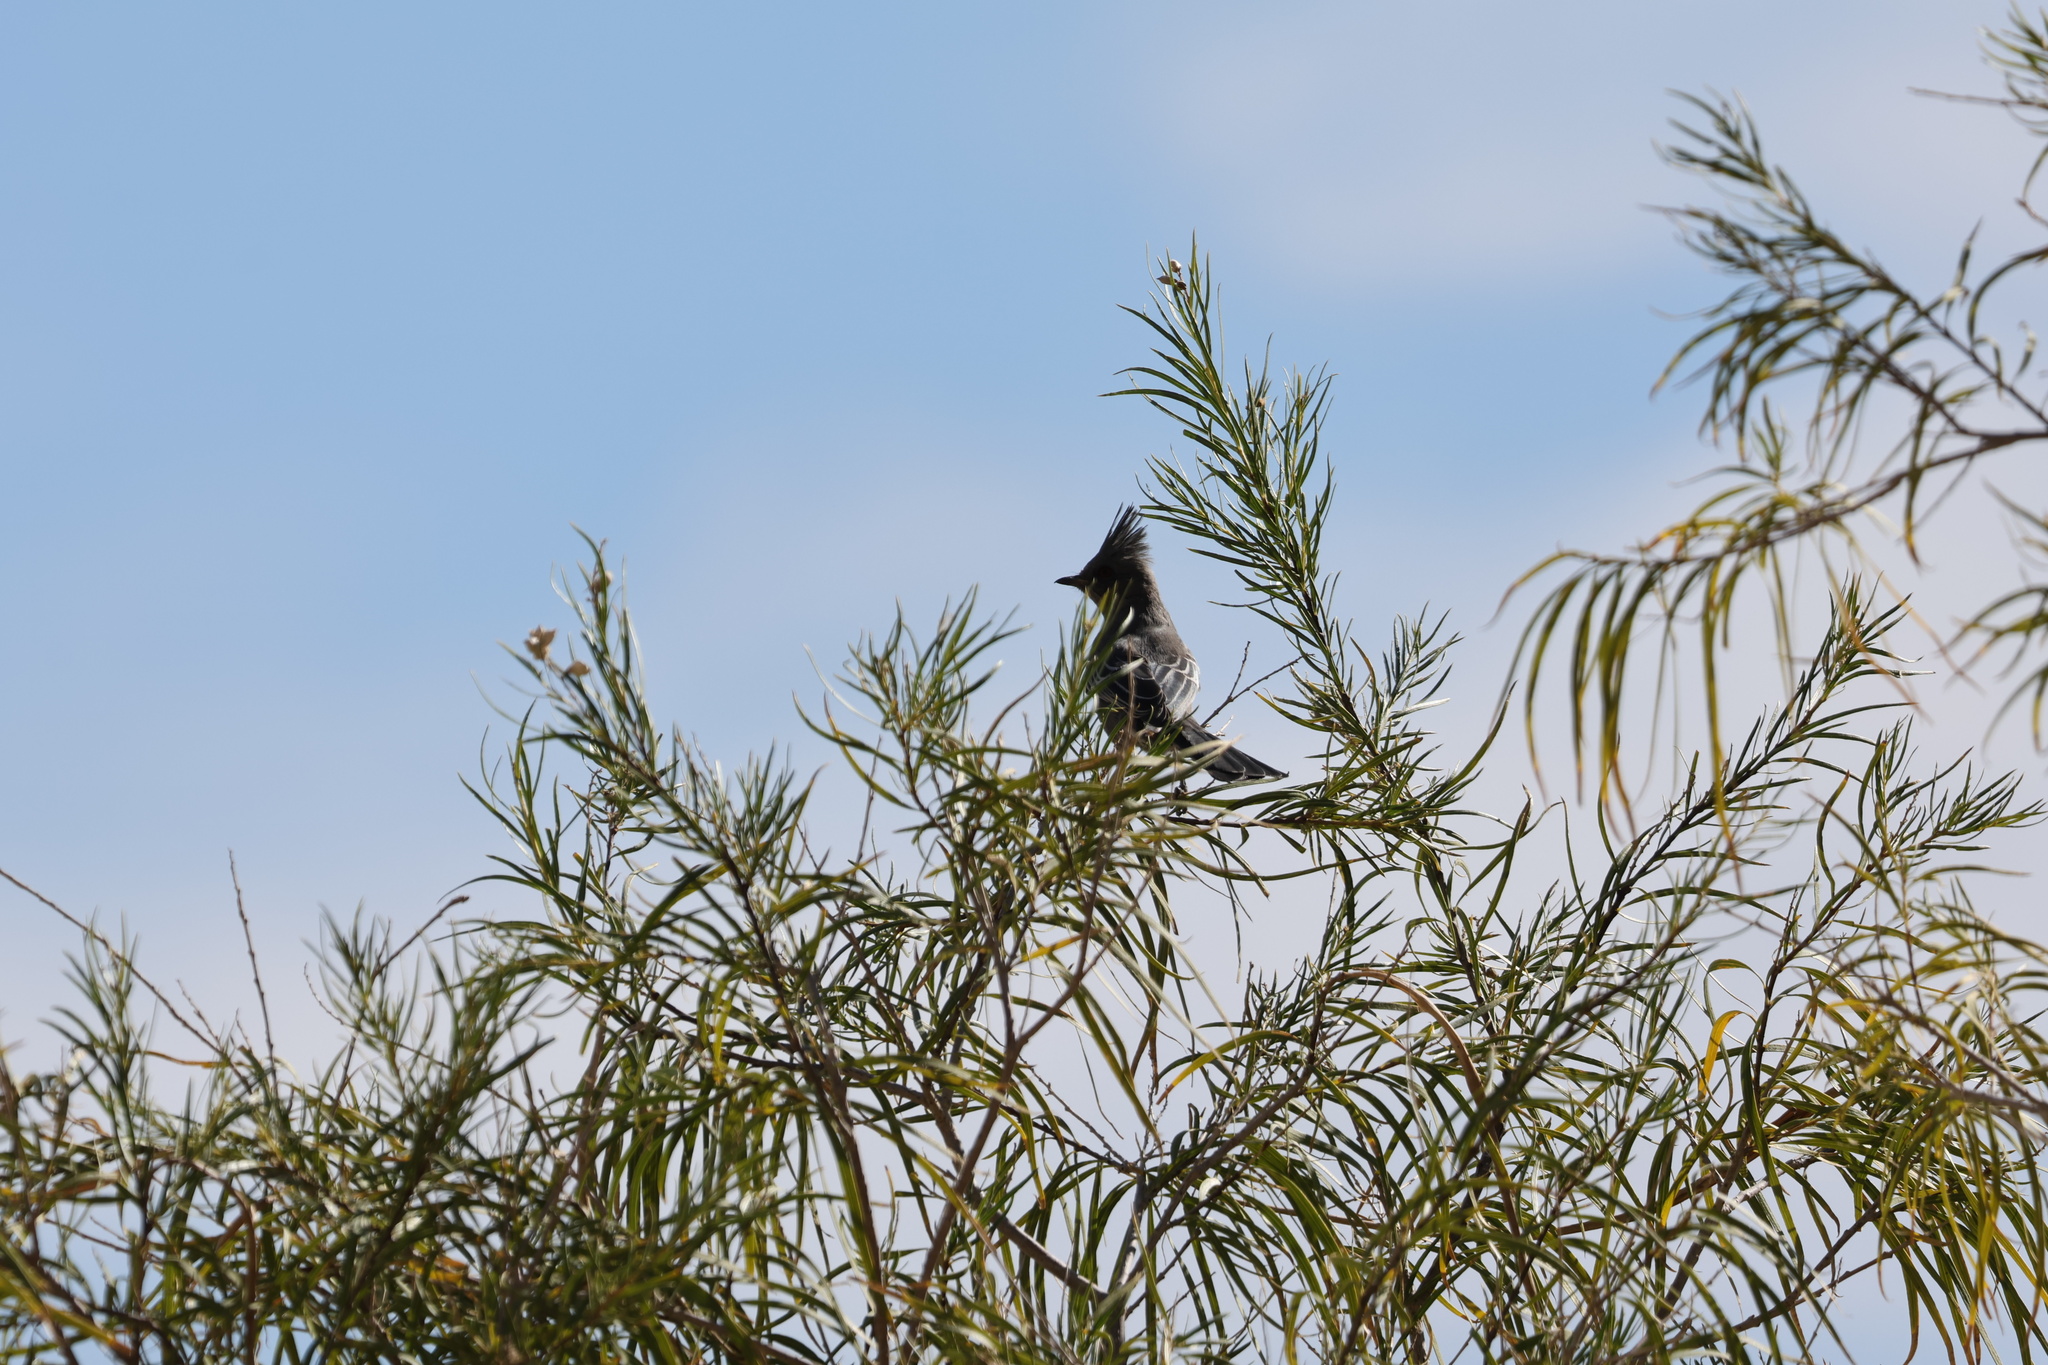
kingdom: Animalia
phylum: Chordata
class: Aves
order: Passeriformes
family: Ptilogonatidae
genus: Phainopepla
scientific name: Phainopepla nitens
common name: Phainopepla
